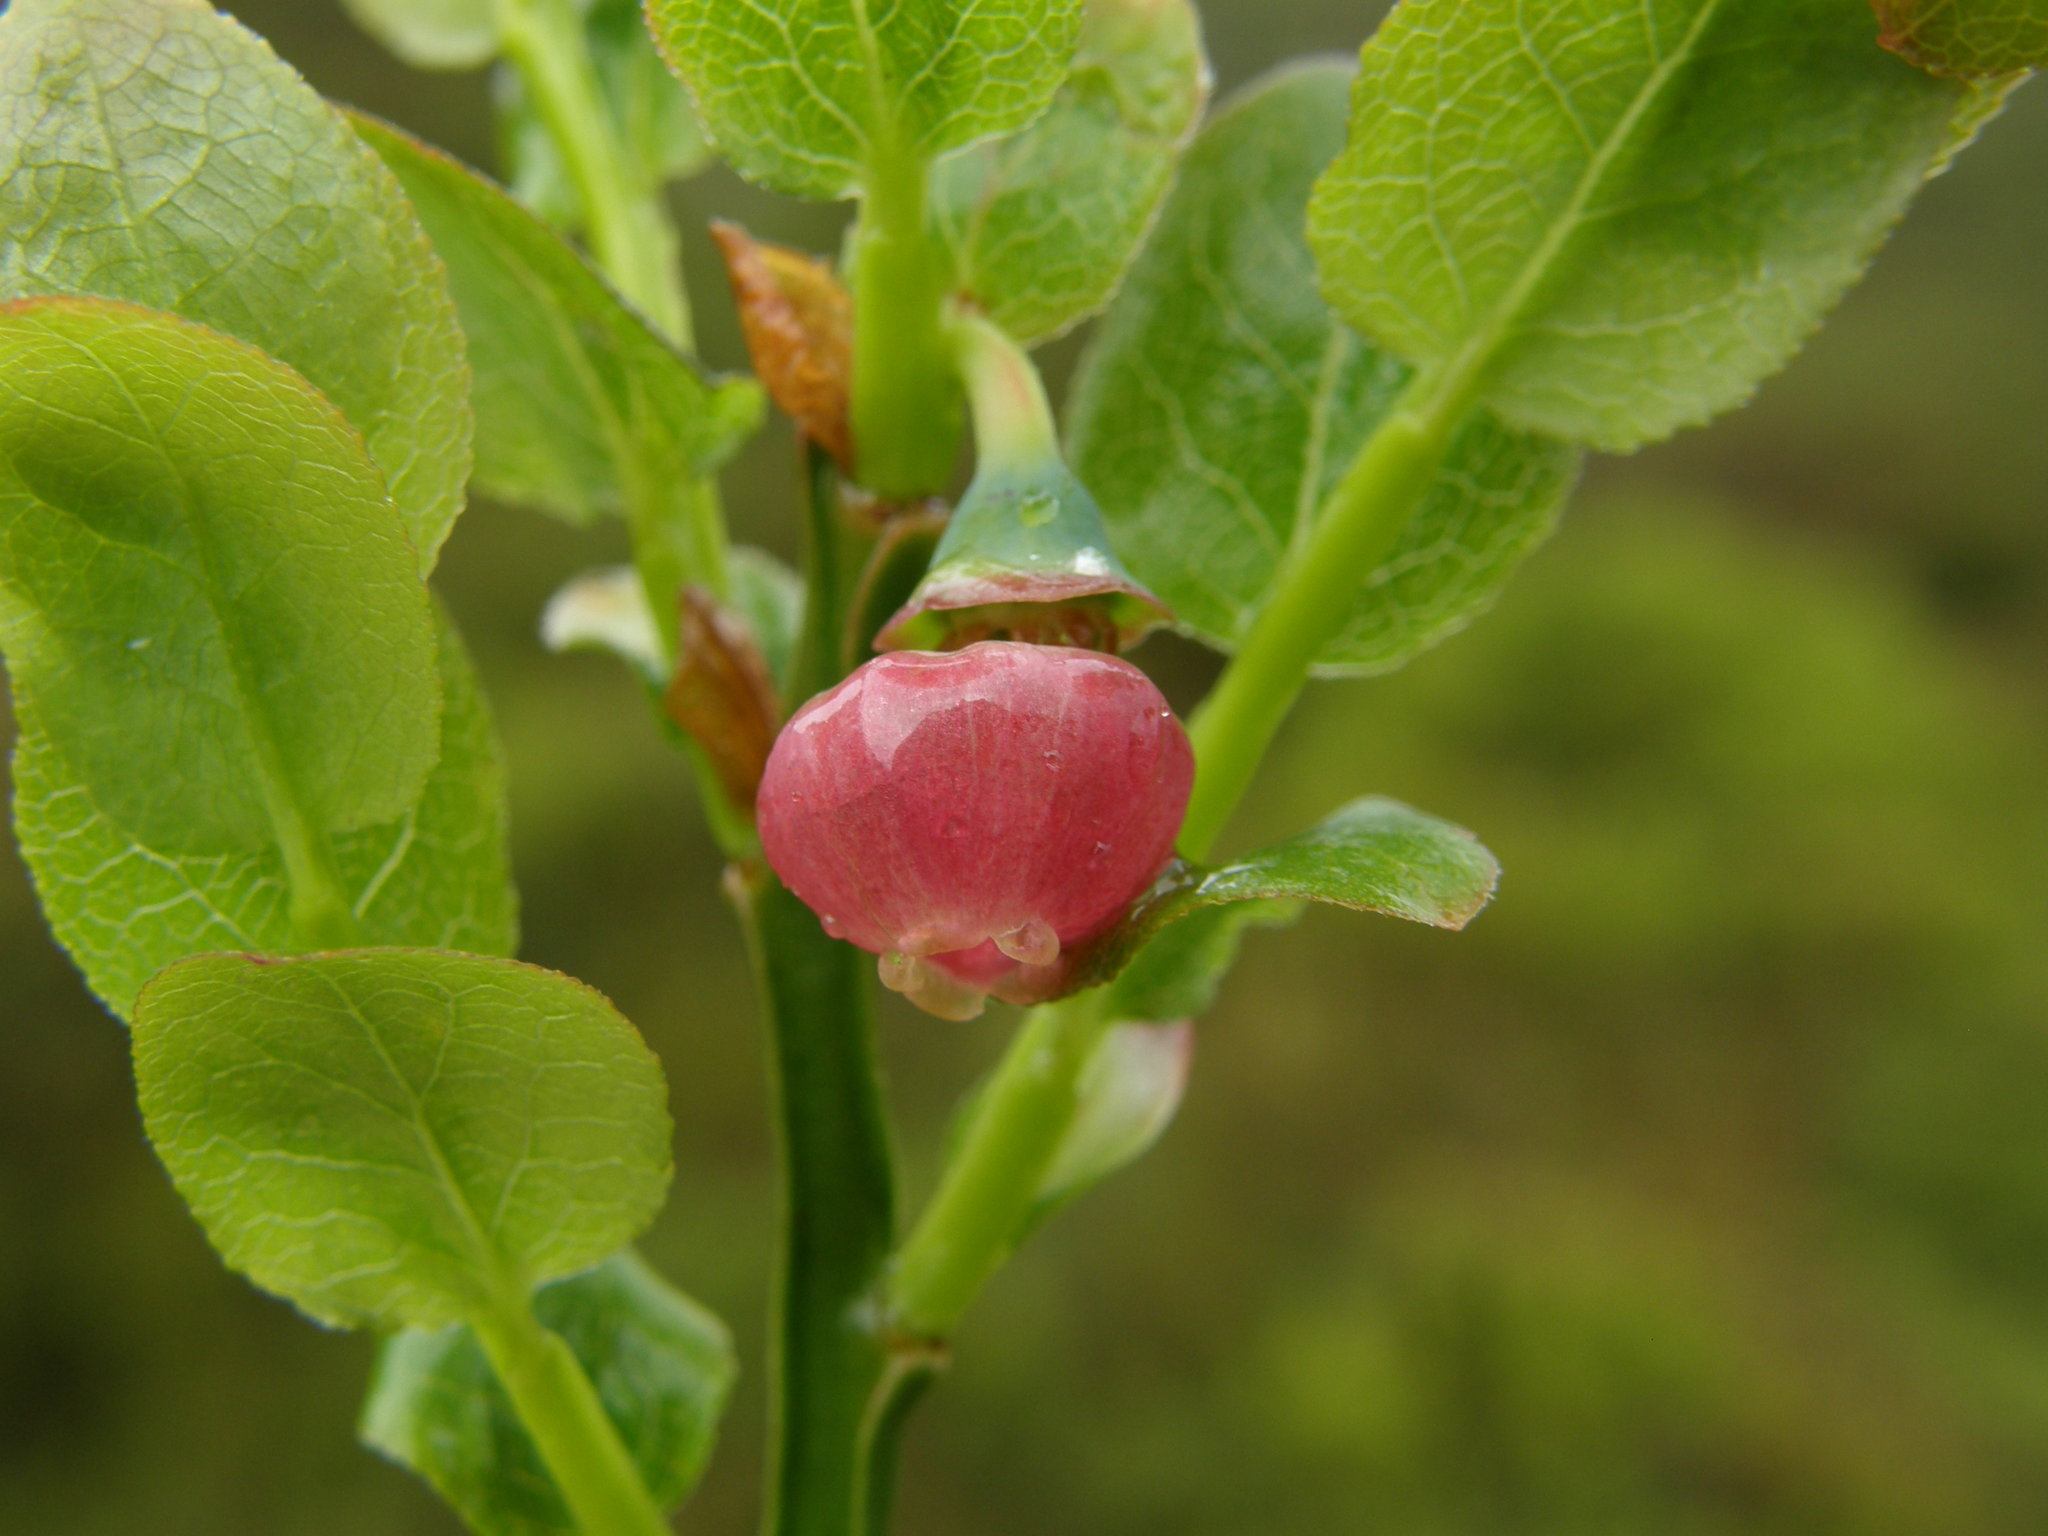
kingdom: Plantae
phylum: Tracheophyta
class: Magnoliopsida
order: Ericales
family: Ericaceae
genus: Vaccinium
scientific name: Vaccinium myrtillus
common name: Bilberry
